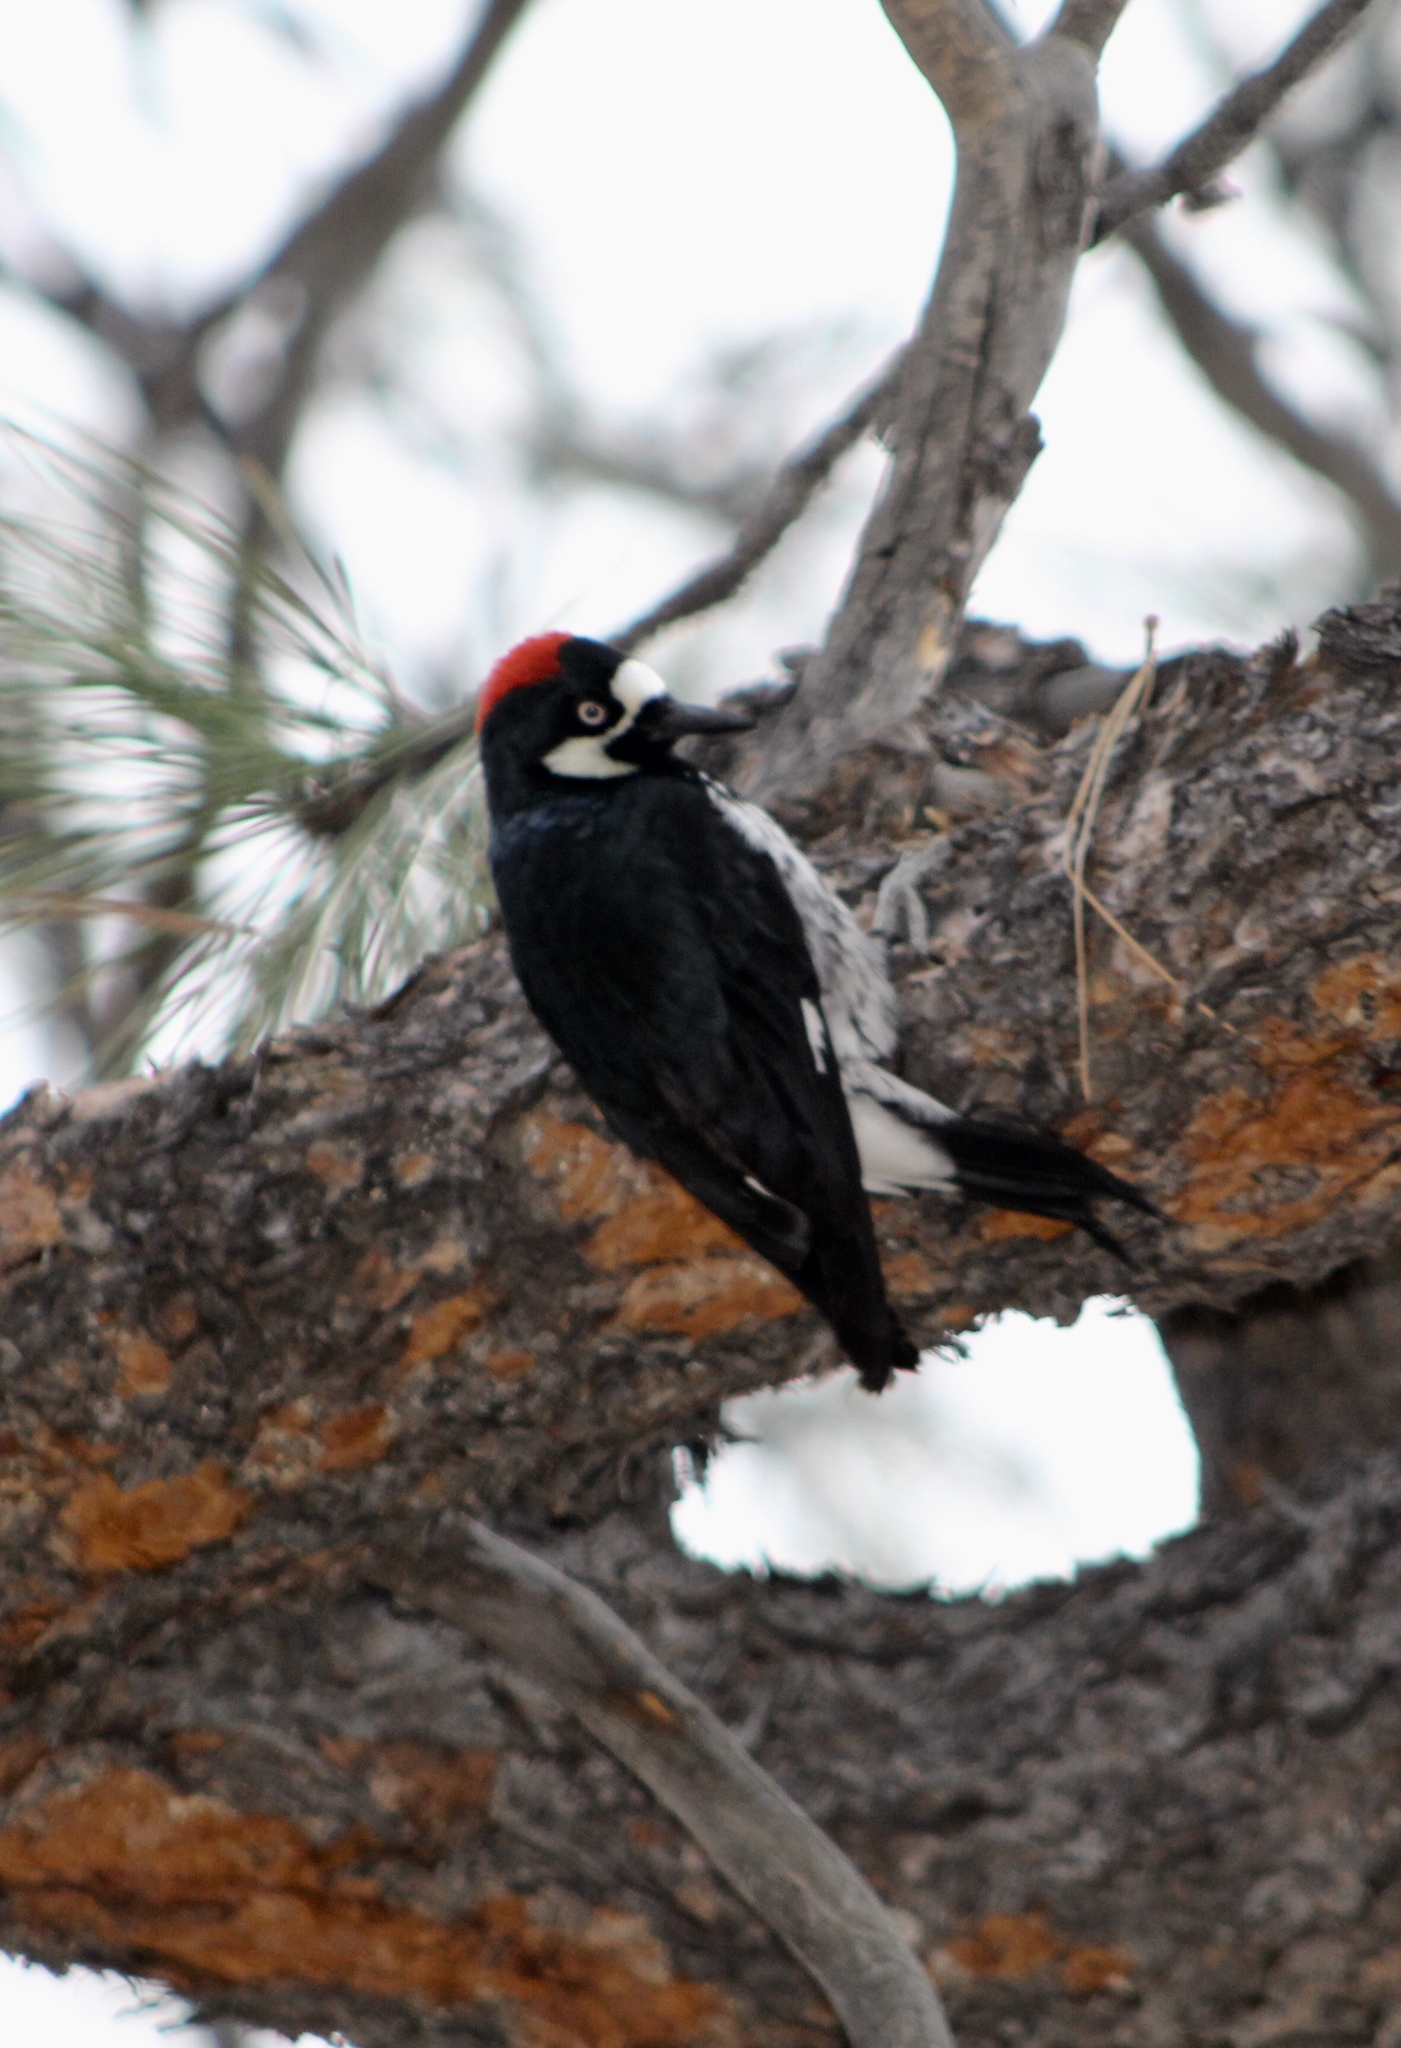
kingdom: Animalia
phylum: Chordata
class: Aves
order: Piciformes
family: Picidae
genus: Melanerpes
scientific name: Melanerpes formicivorus
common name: Acorn woodpecker
